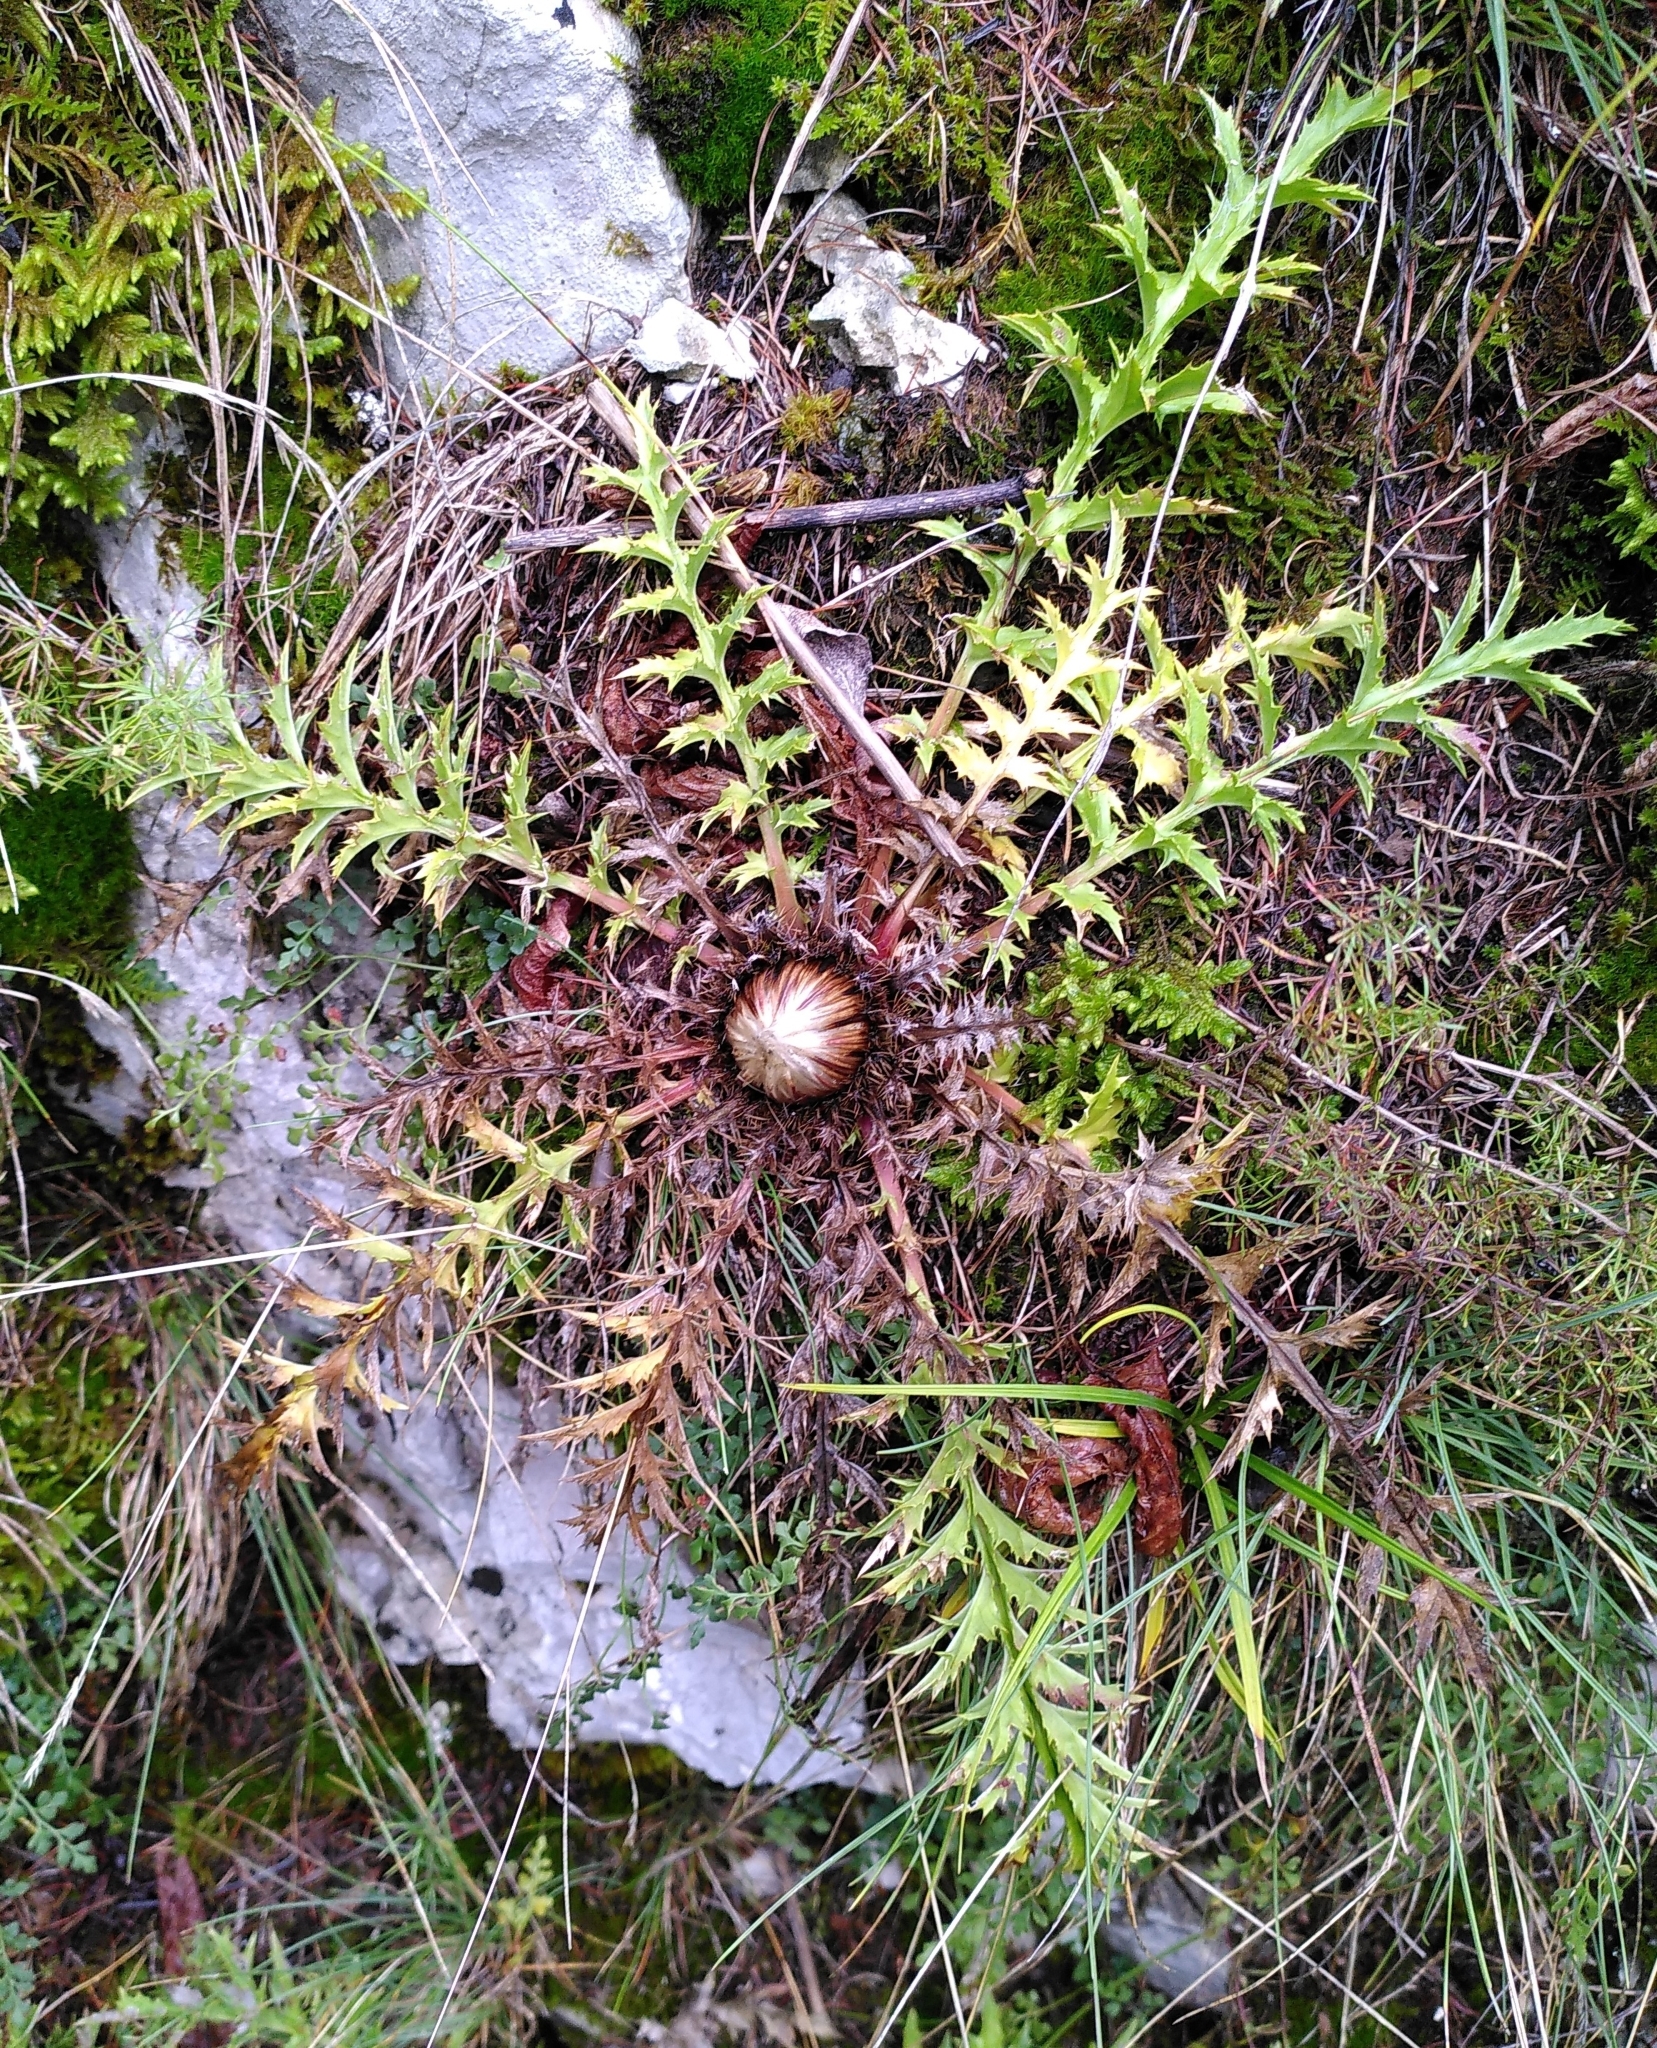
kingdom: Plantae
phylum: Tracheophyta
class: Magnoliopsida
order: Asterales
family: Asteraceae
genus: Carlina
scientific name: Carlina acaulis
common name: Stemless carline thistle
